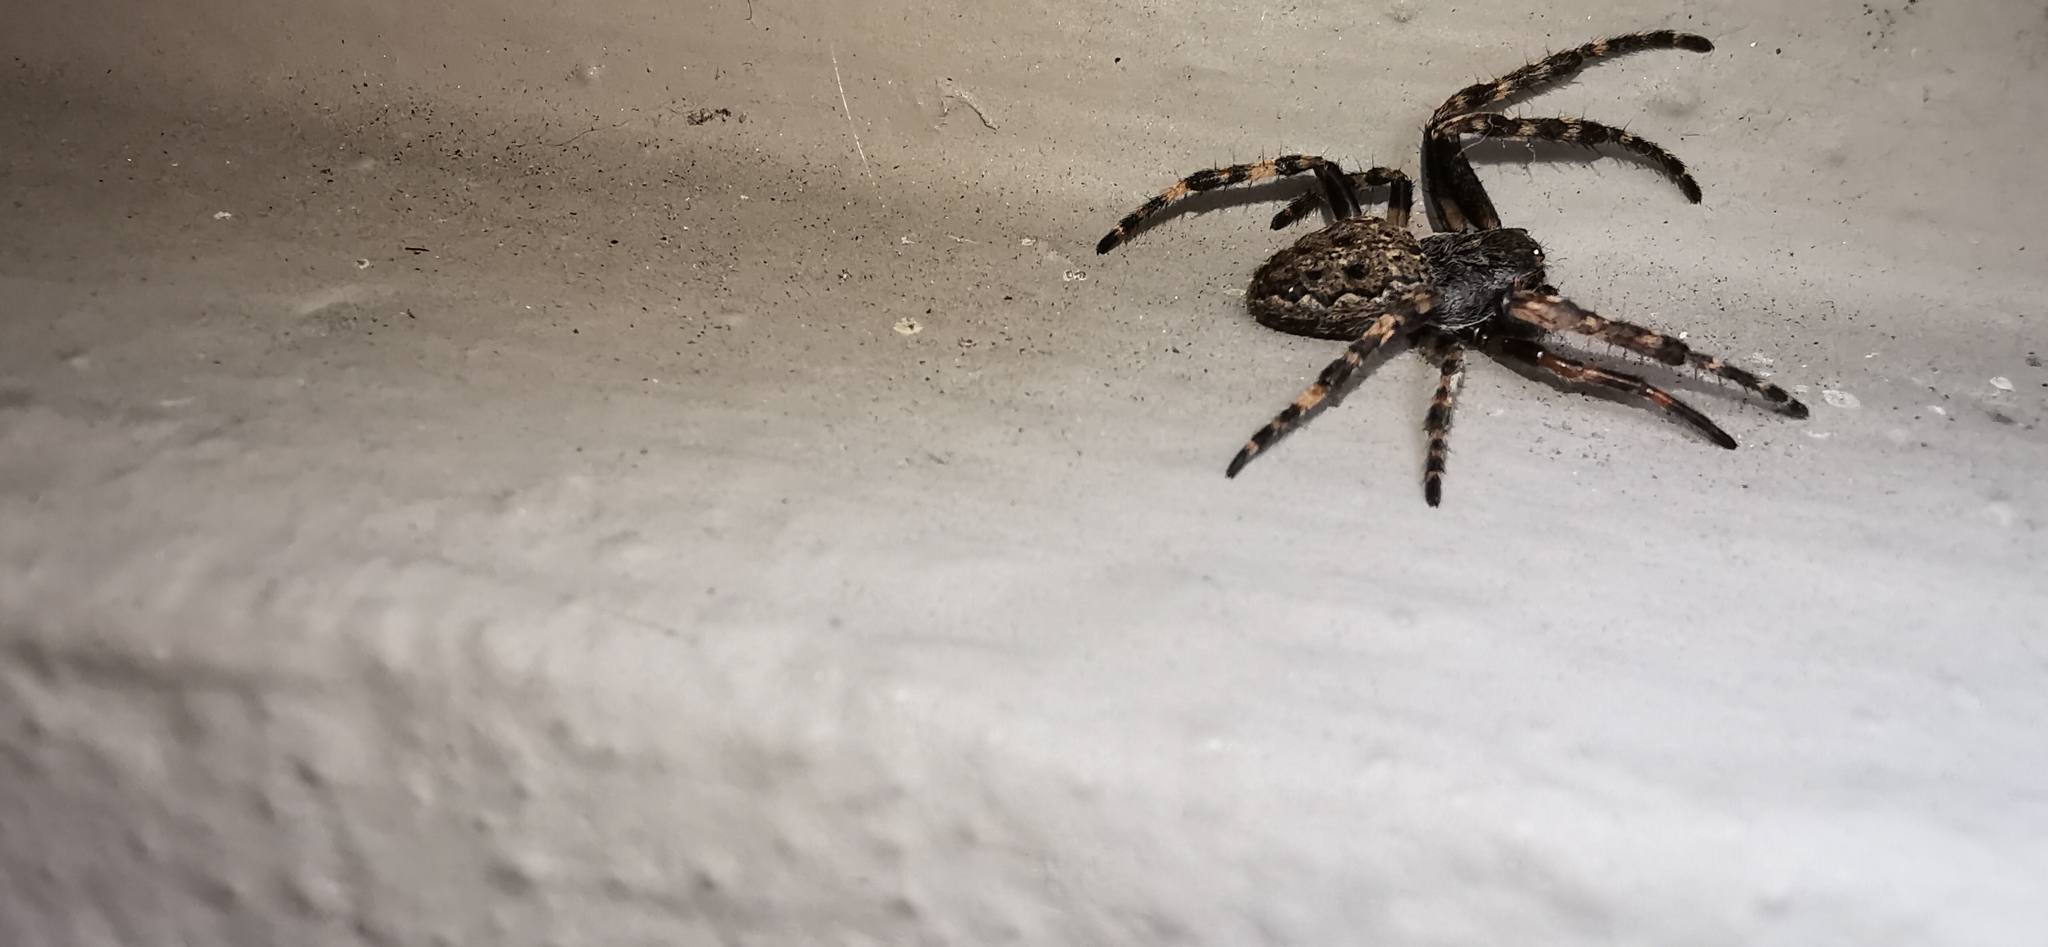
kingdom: Animalia
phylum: Arthropoda
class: Arachnida
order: Araneae
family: Araneidae
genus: Nuctenea
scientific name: Nuctenea umbratica
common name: Toad spider
